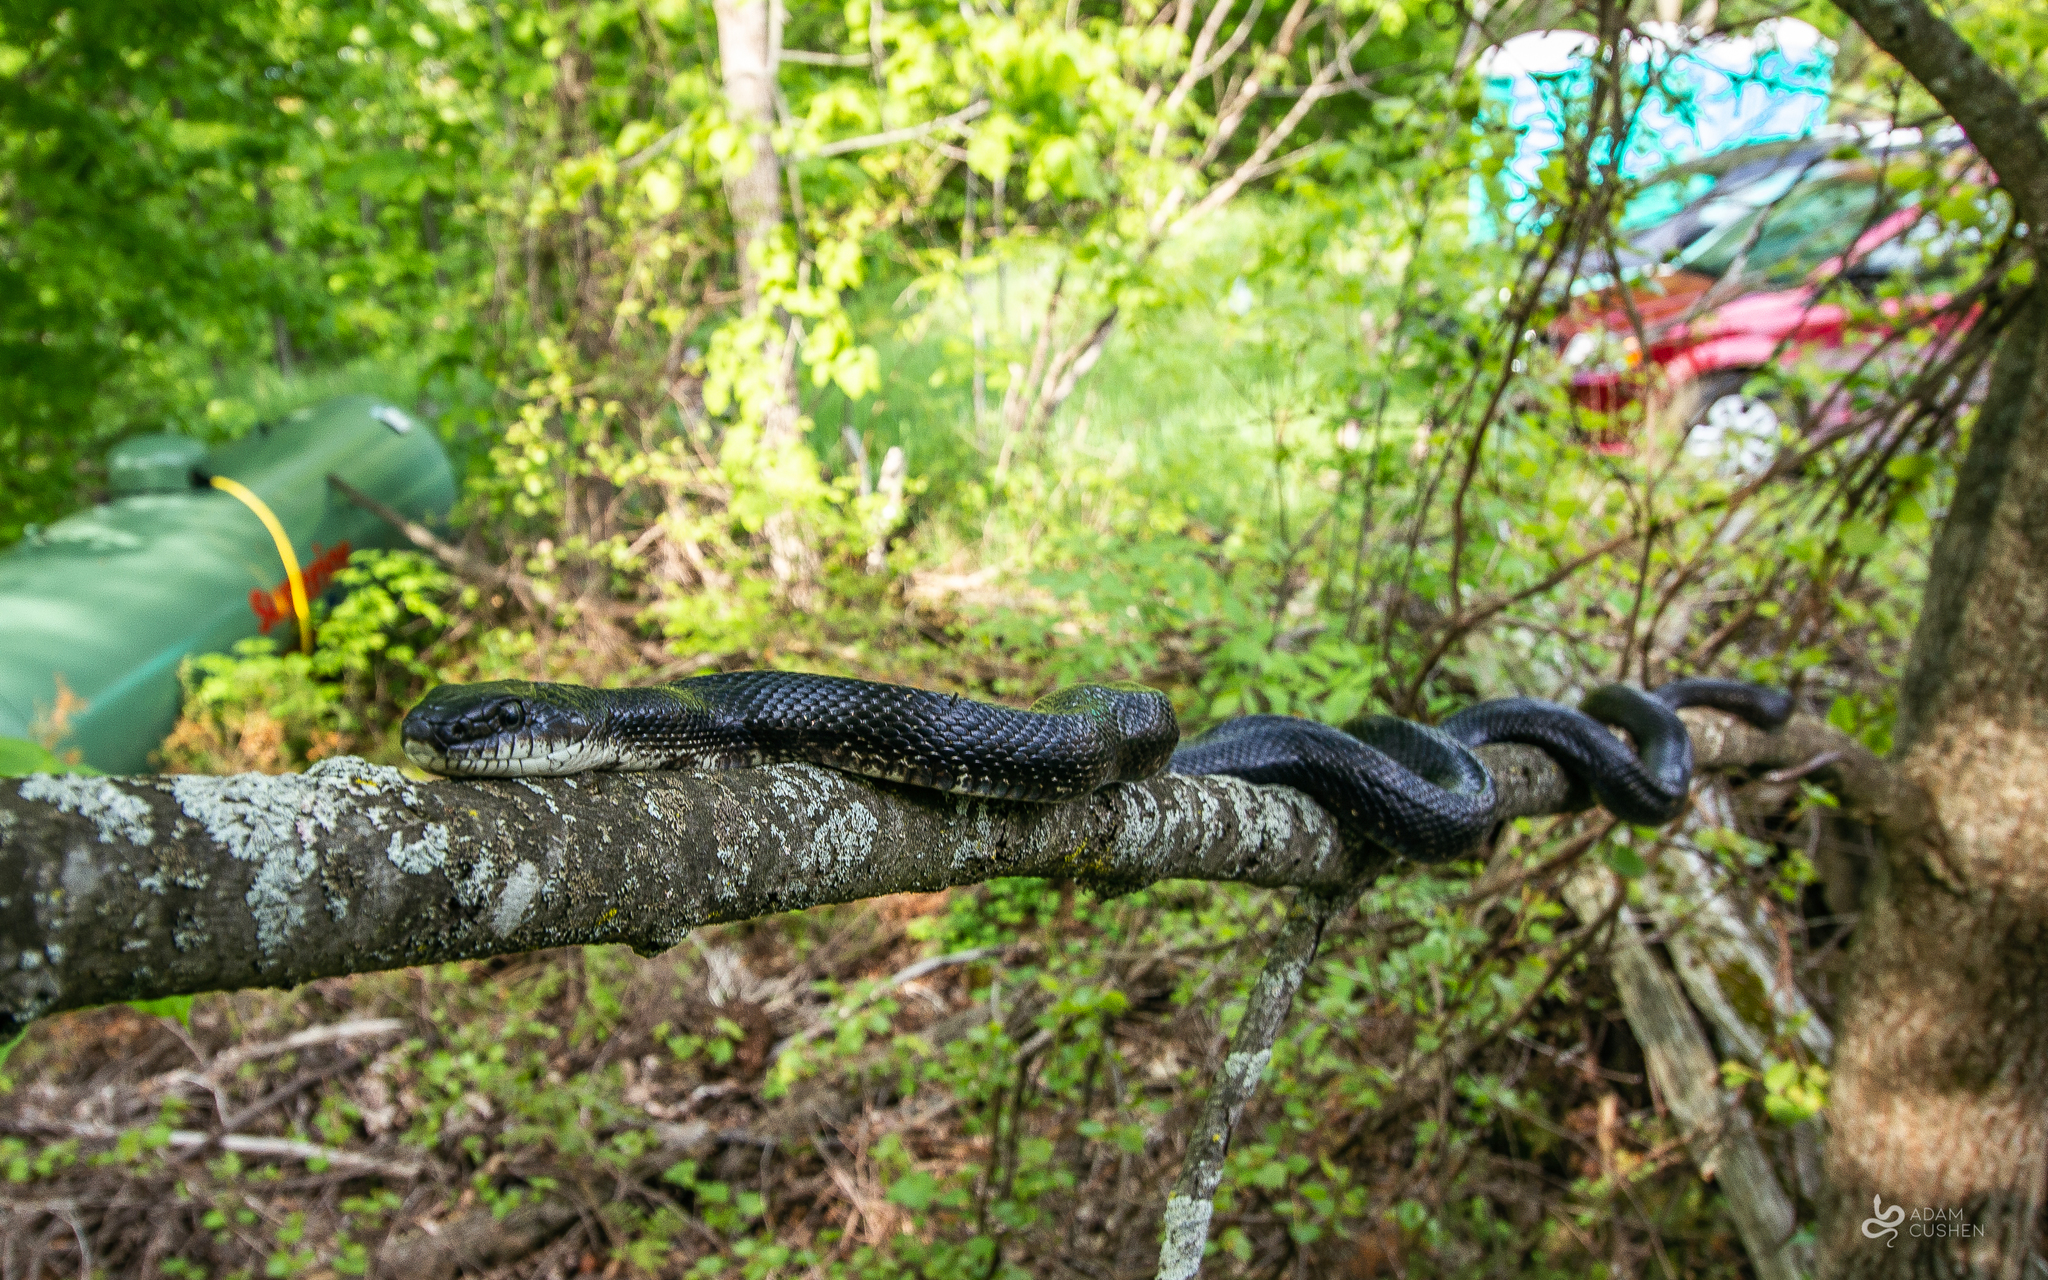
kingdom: Animalia
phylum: Chordata
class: Squamata
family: Colubridae
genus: Pantherophis
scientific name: Pantherophis spiloides
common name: Gray rat snake
